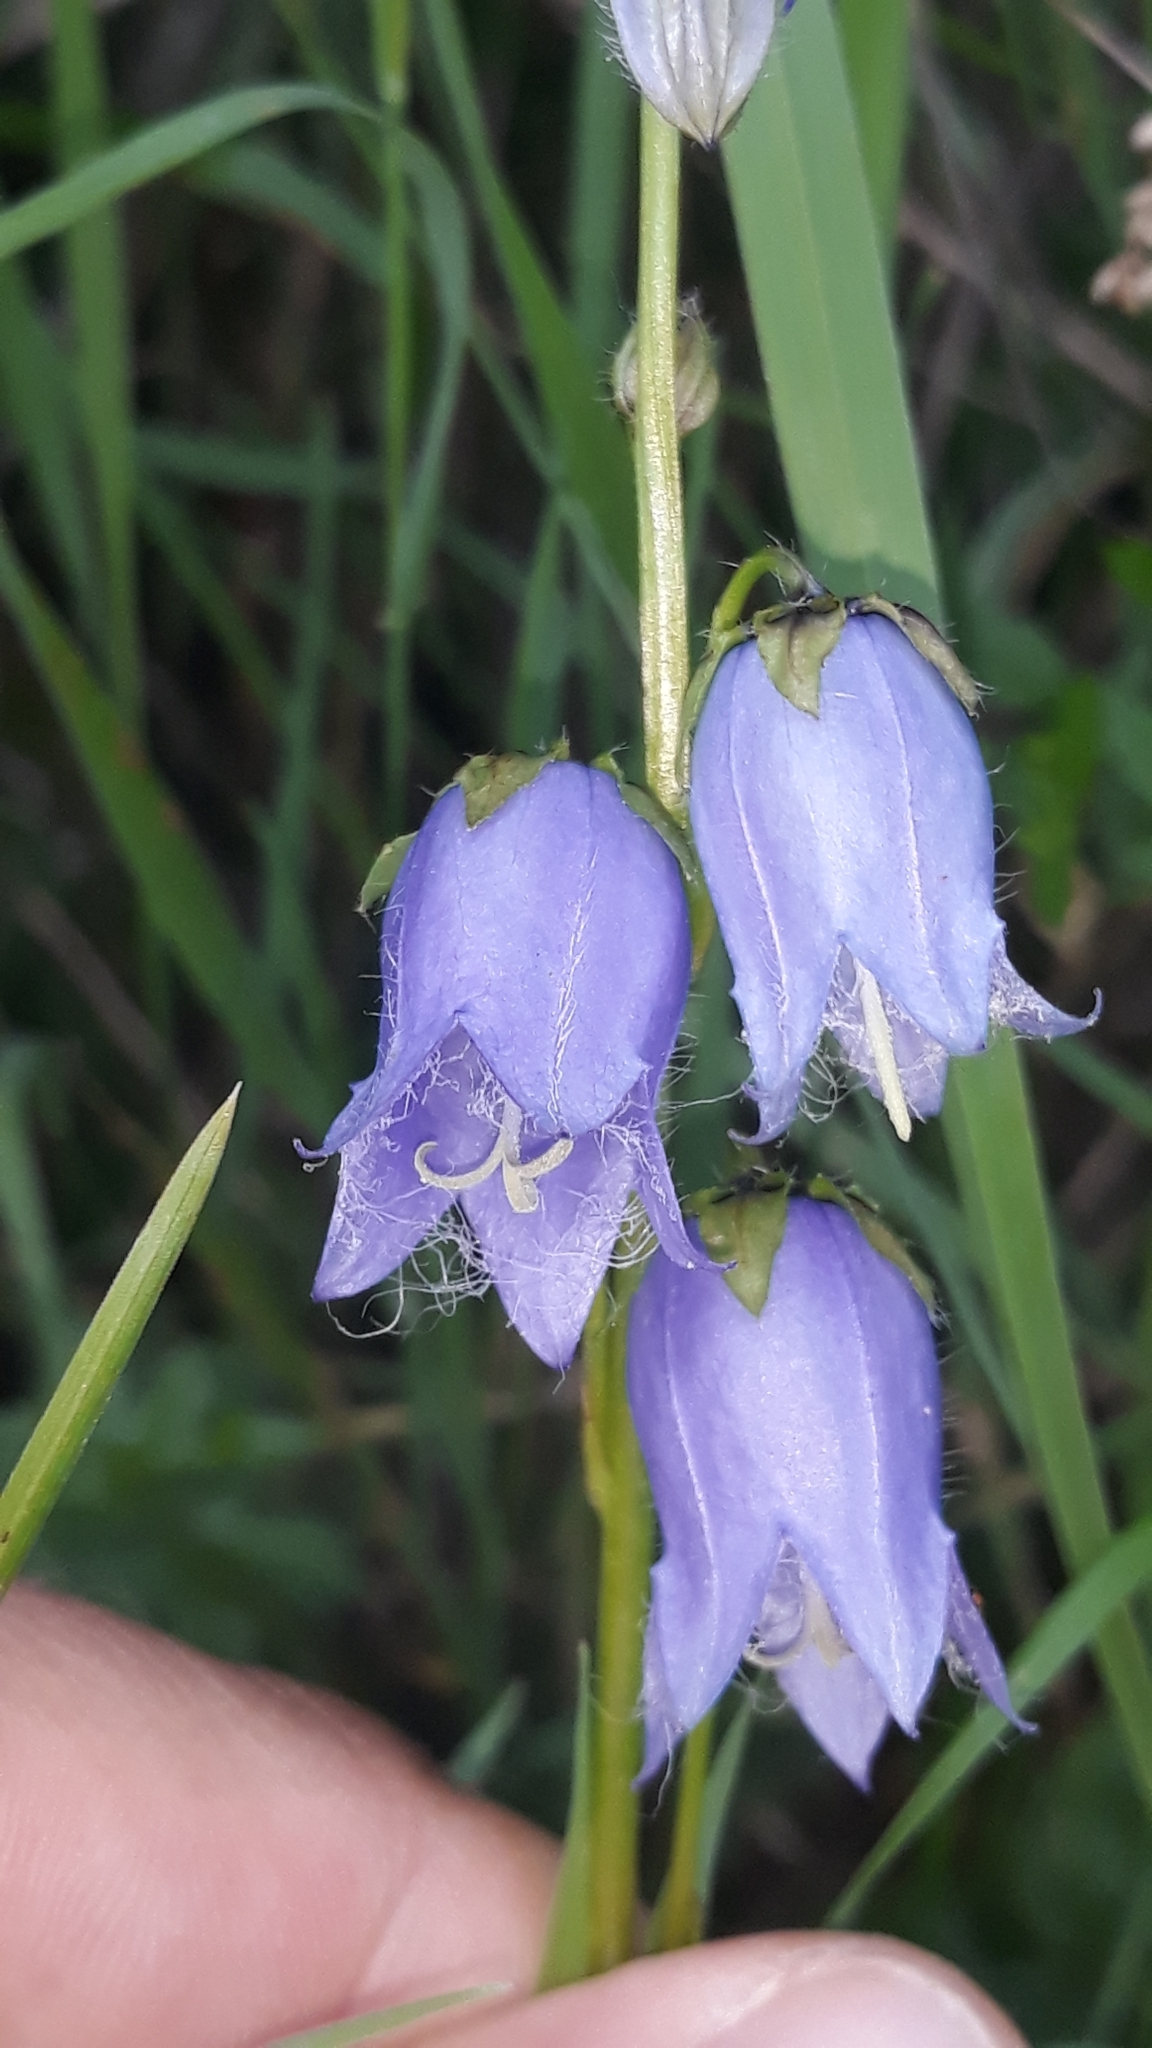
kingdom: Plantae
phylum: Tracheophyta
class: Magnoliopsida
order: Asterales
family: Campanulaceae
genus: Campanula
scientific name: Campanula barbata
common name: Bearded bellflower
